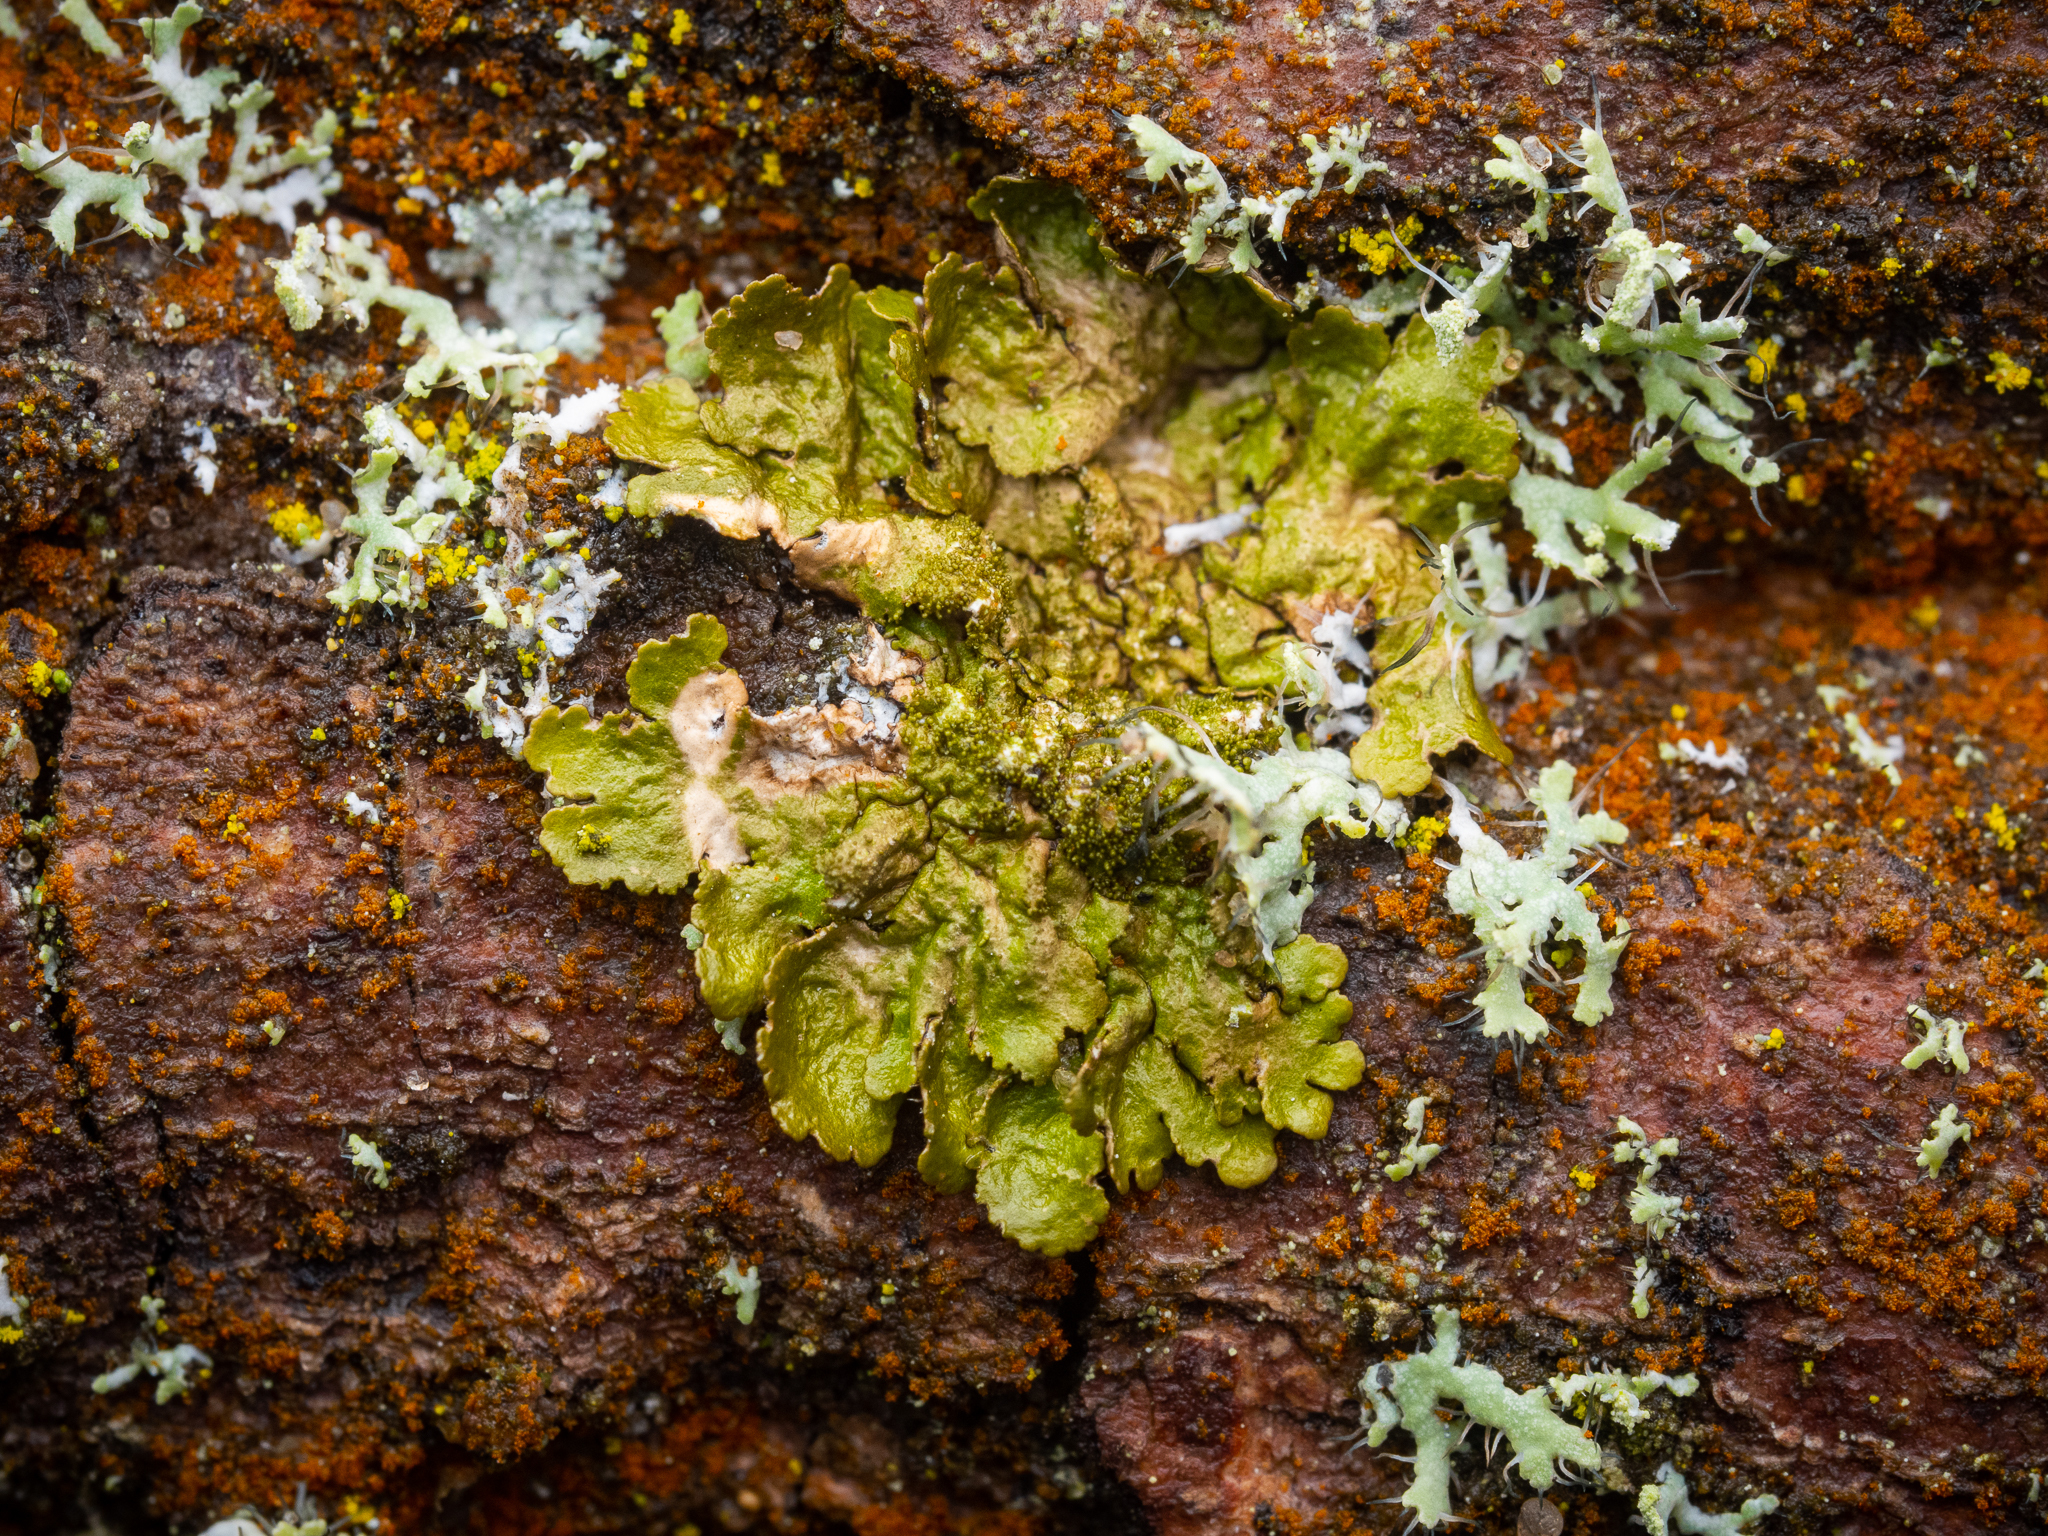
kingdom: Fungi
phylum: Ascomycota
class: Lecanoromycetes
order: Lecanorales
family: Parmeliaceae
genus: Melanohalea
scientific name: Melanohalea exasperatula
